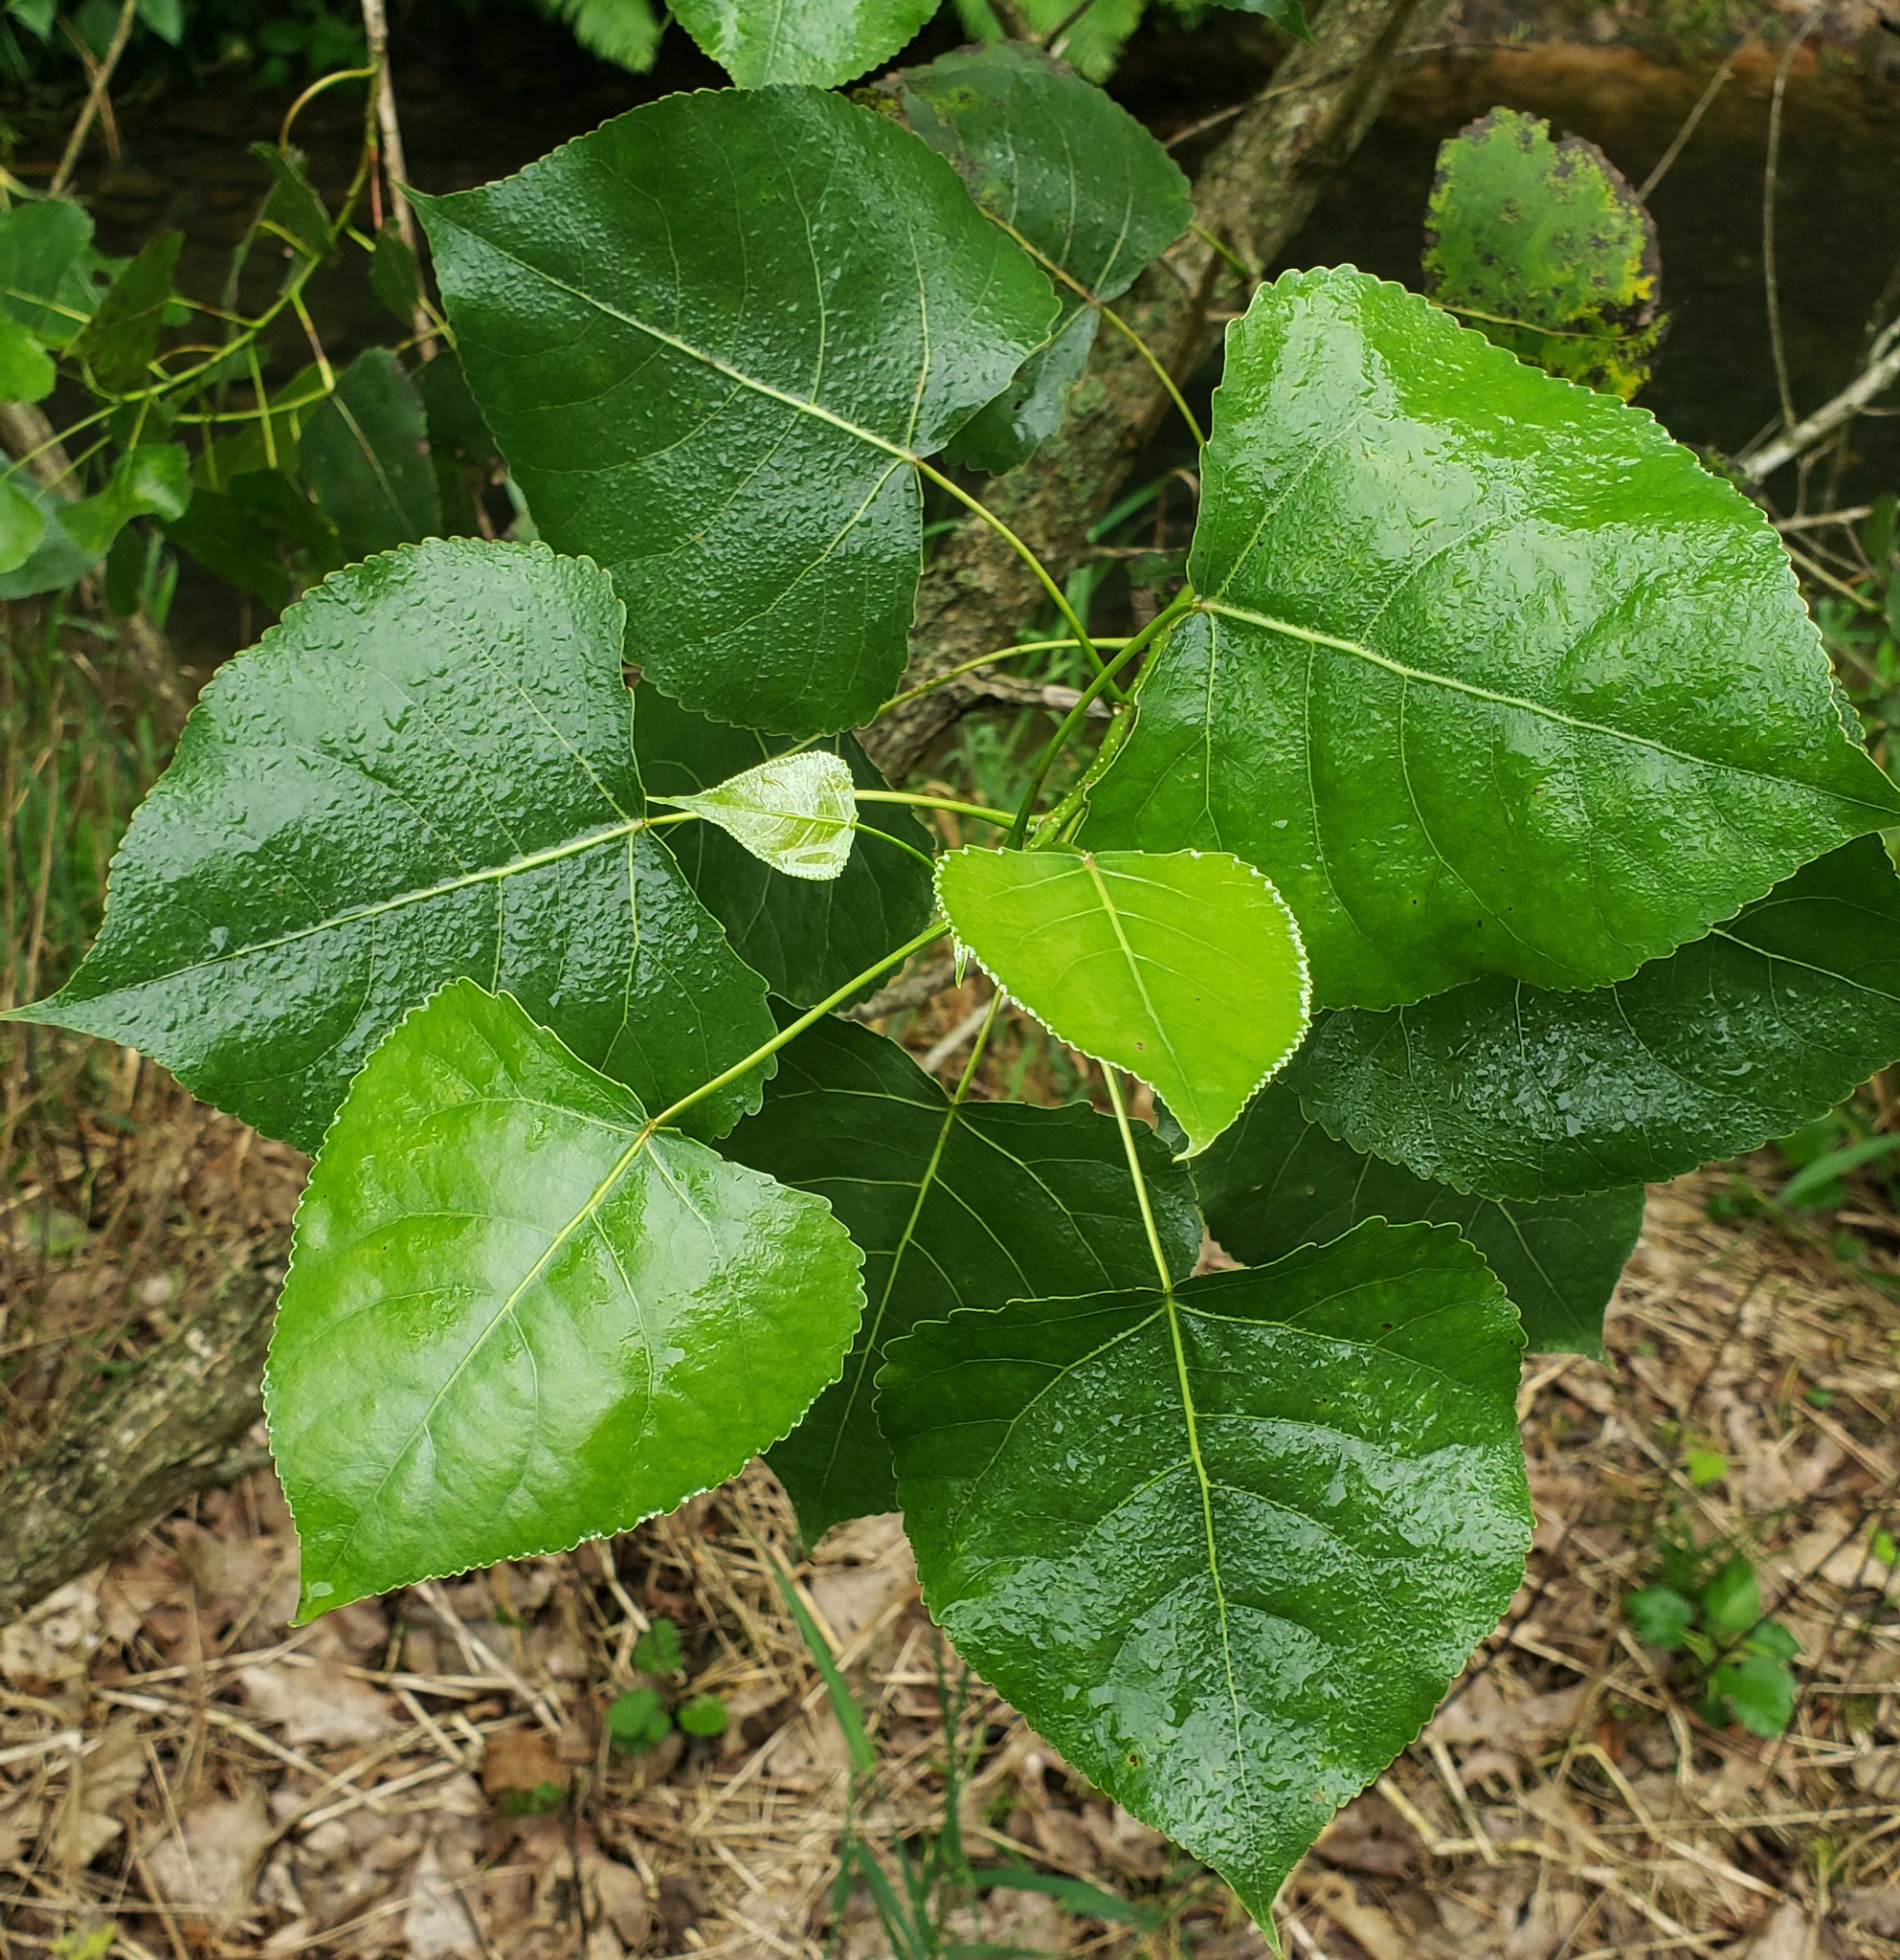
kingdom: Plantae
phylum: Tracheophyta
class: Magnoliopsida
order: Malpighiales
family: Salicaceae
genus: Populus
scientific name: Populus deltoides
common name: Eastern cottonwood
